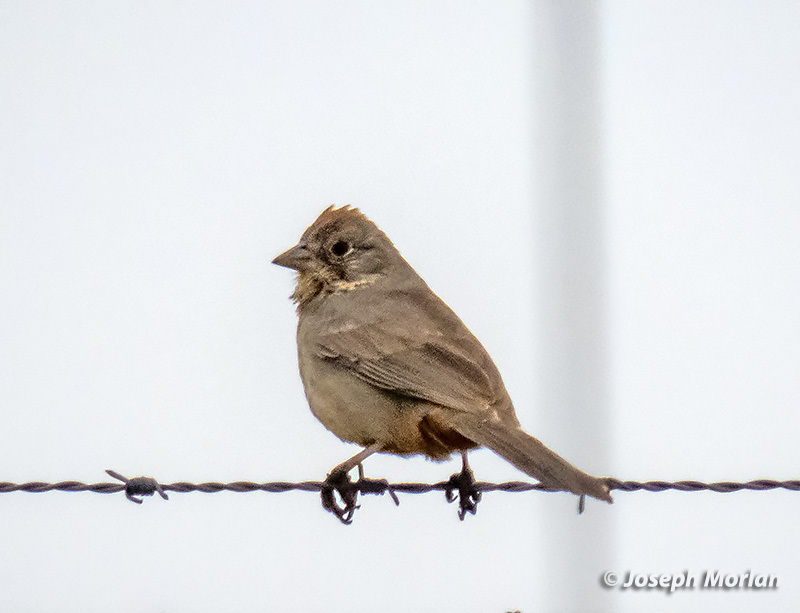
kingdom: Animalia
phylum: Chordata
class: Aves
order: Passeriformes
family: Passerellidae
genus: Melozone
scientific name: Melozone fusca
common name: Canyon towhee
